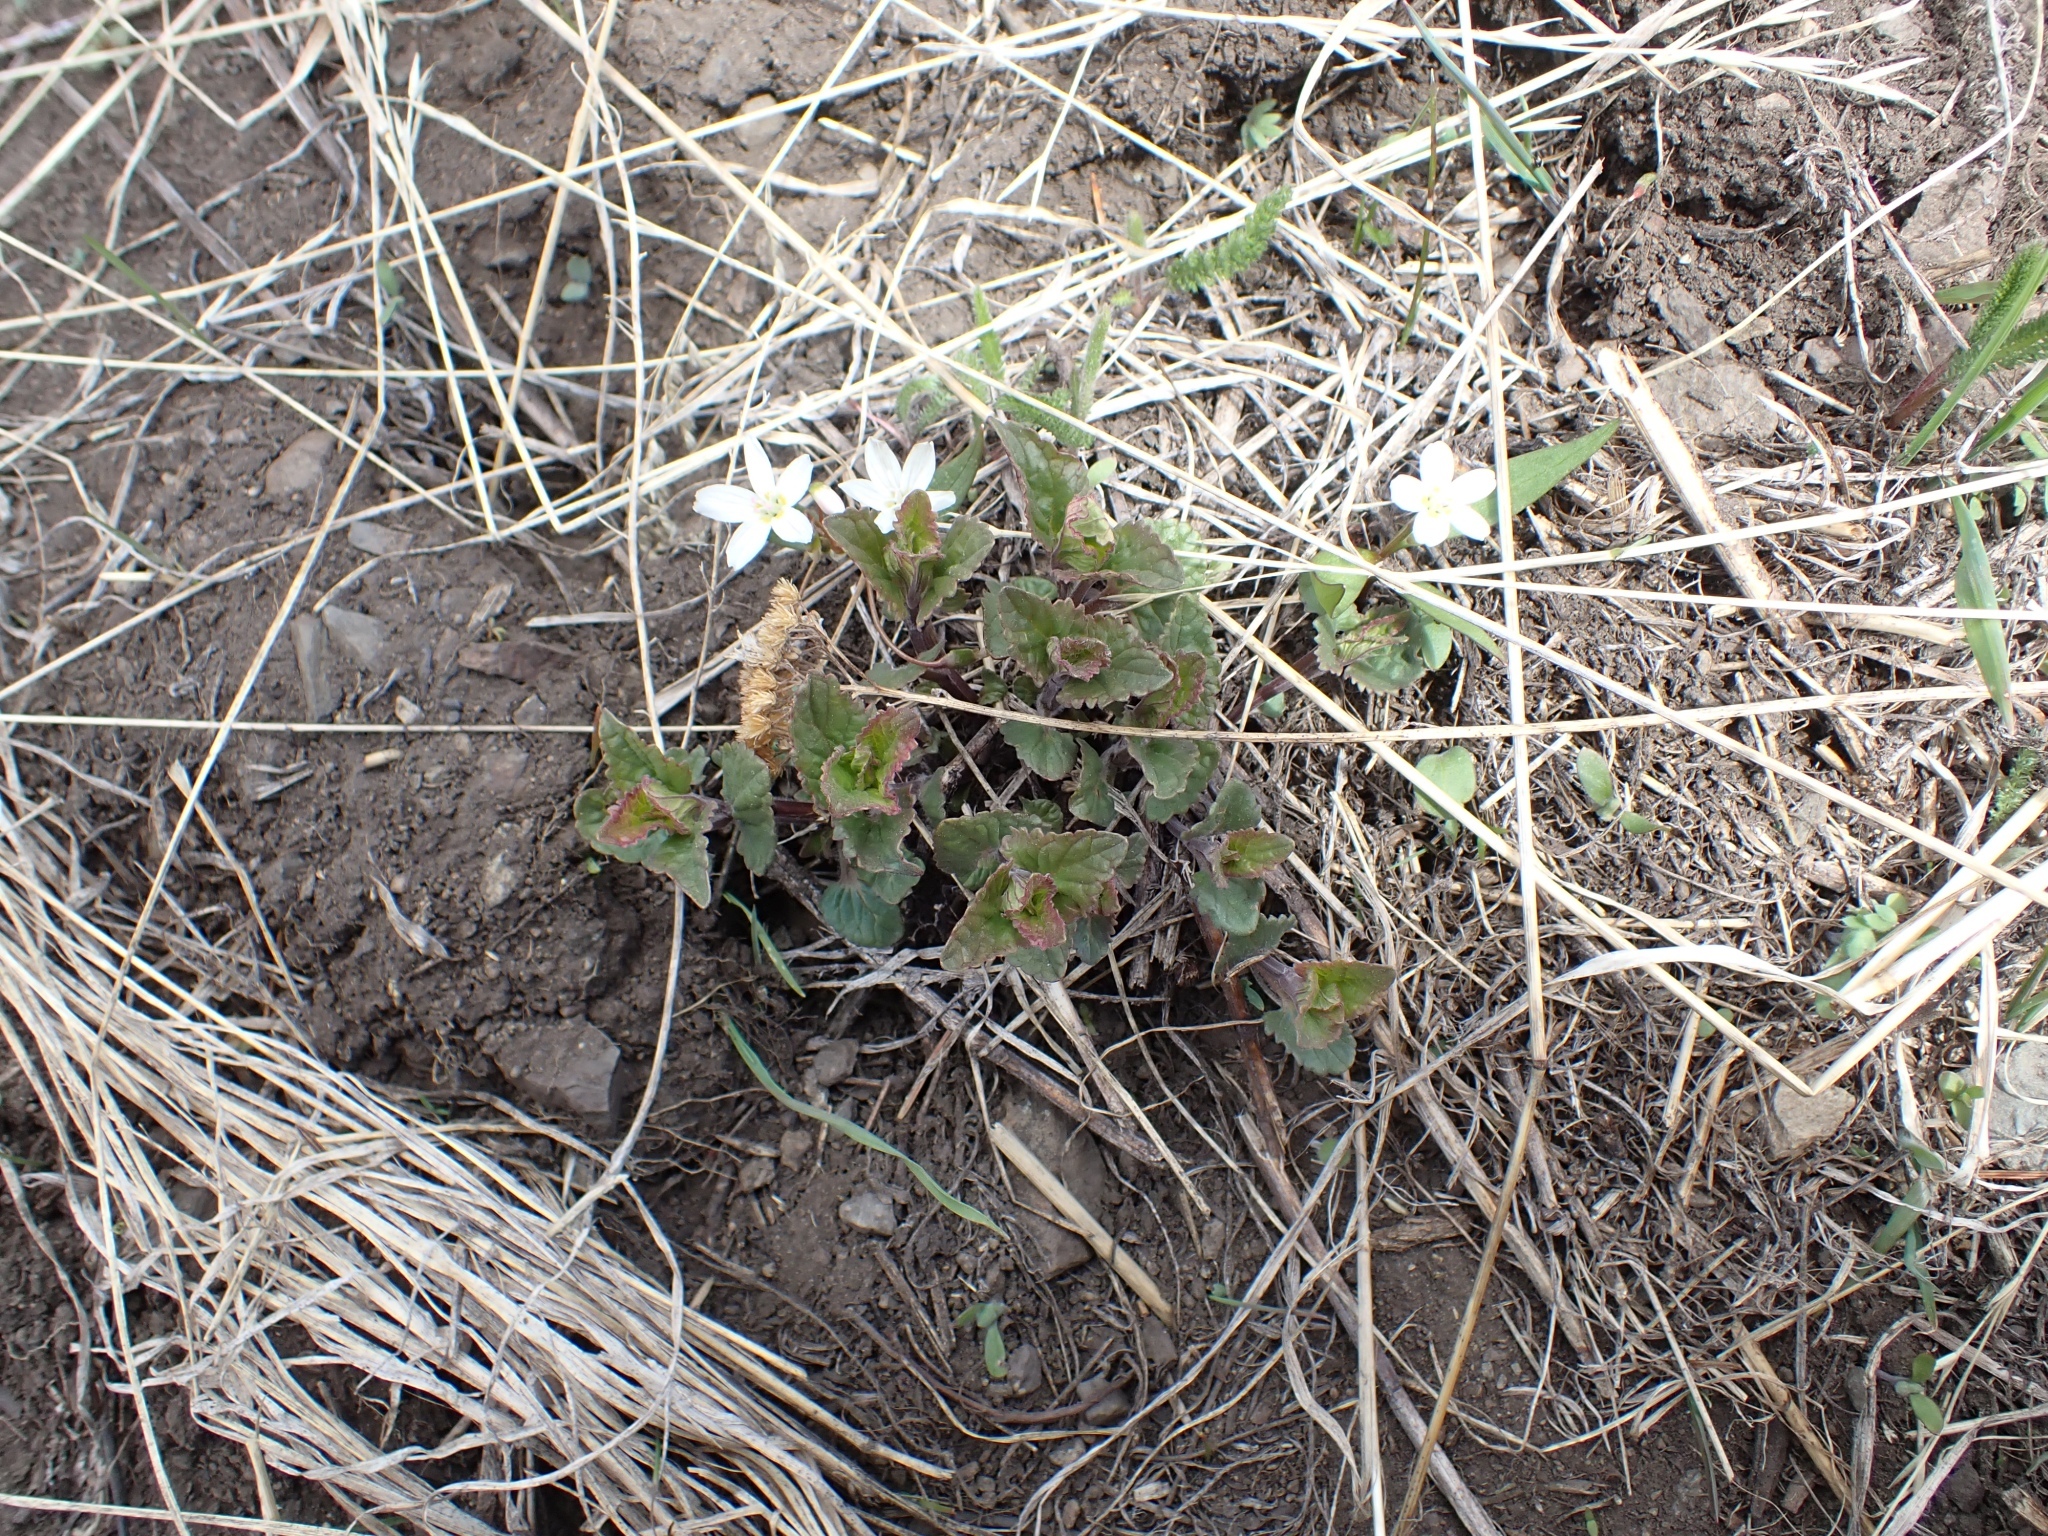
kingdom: Plantae
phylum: Tracheophyta
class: Magnoliopsida
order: Lamiales
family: Lamiaceae
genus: Agastache
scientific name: Agastache urticifolia
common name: Horsemint giant hyssop
